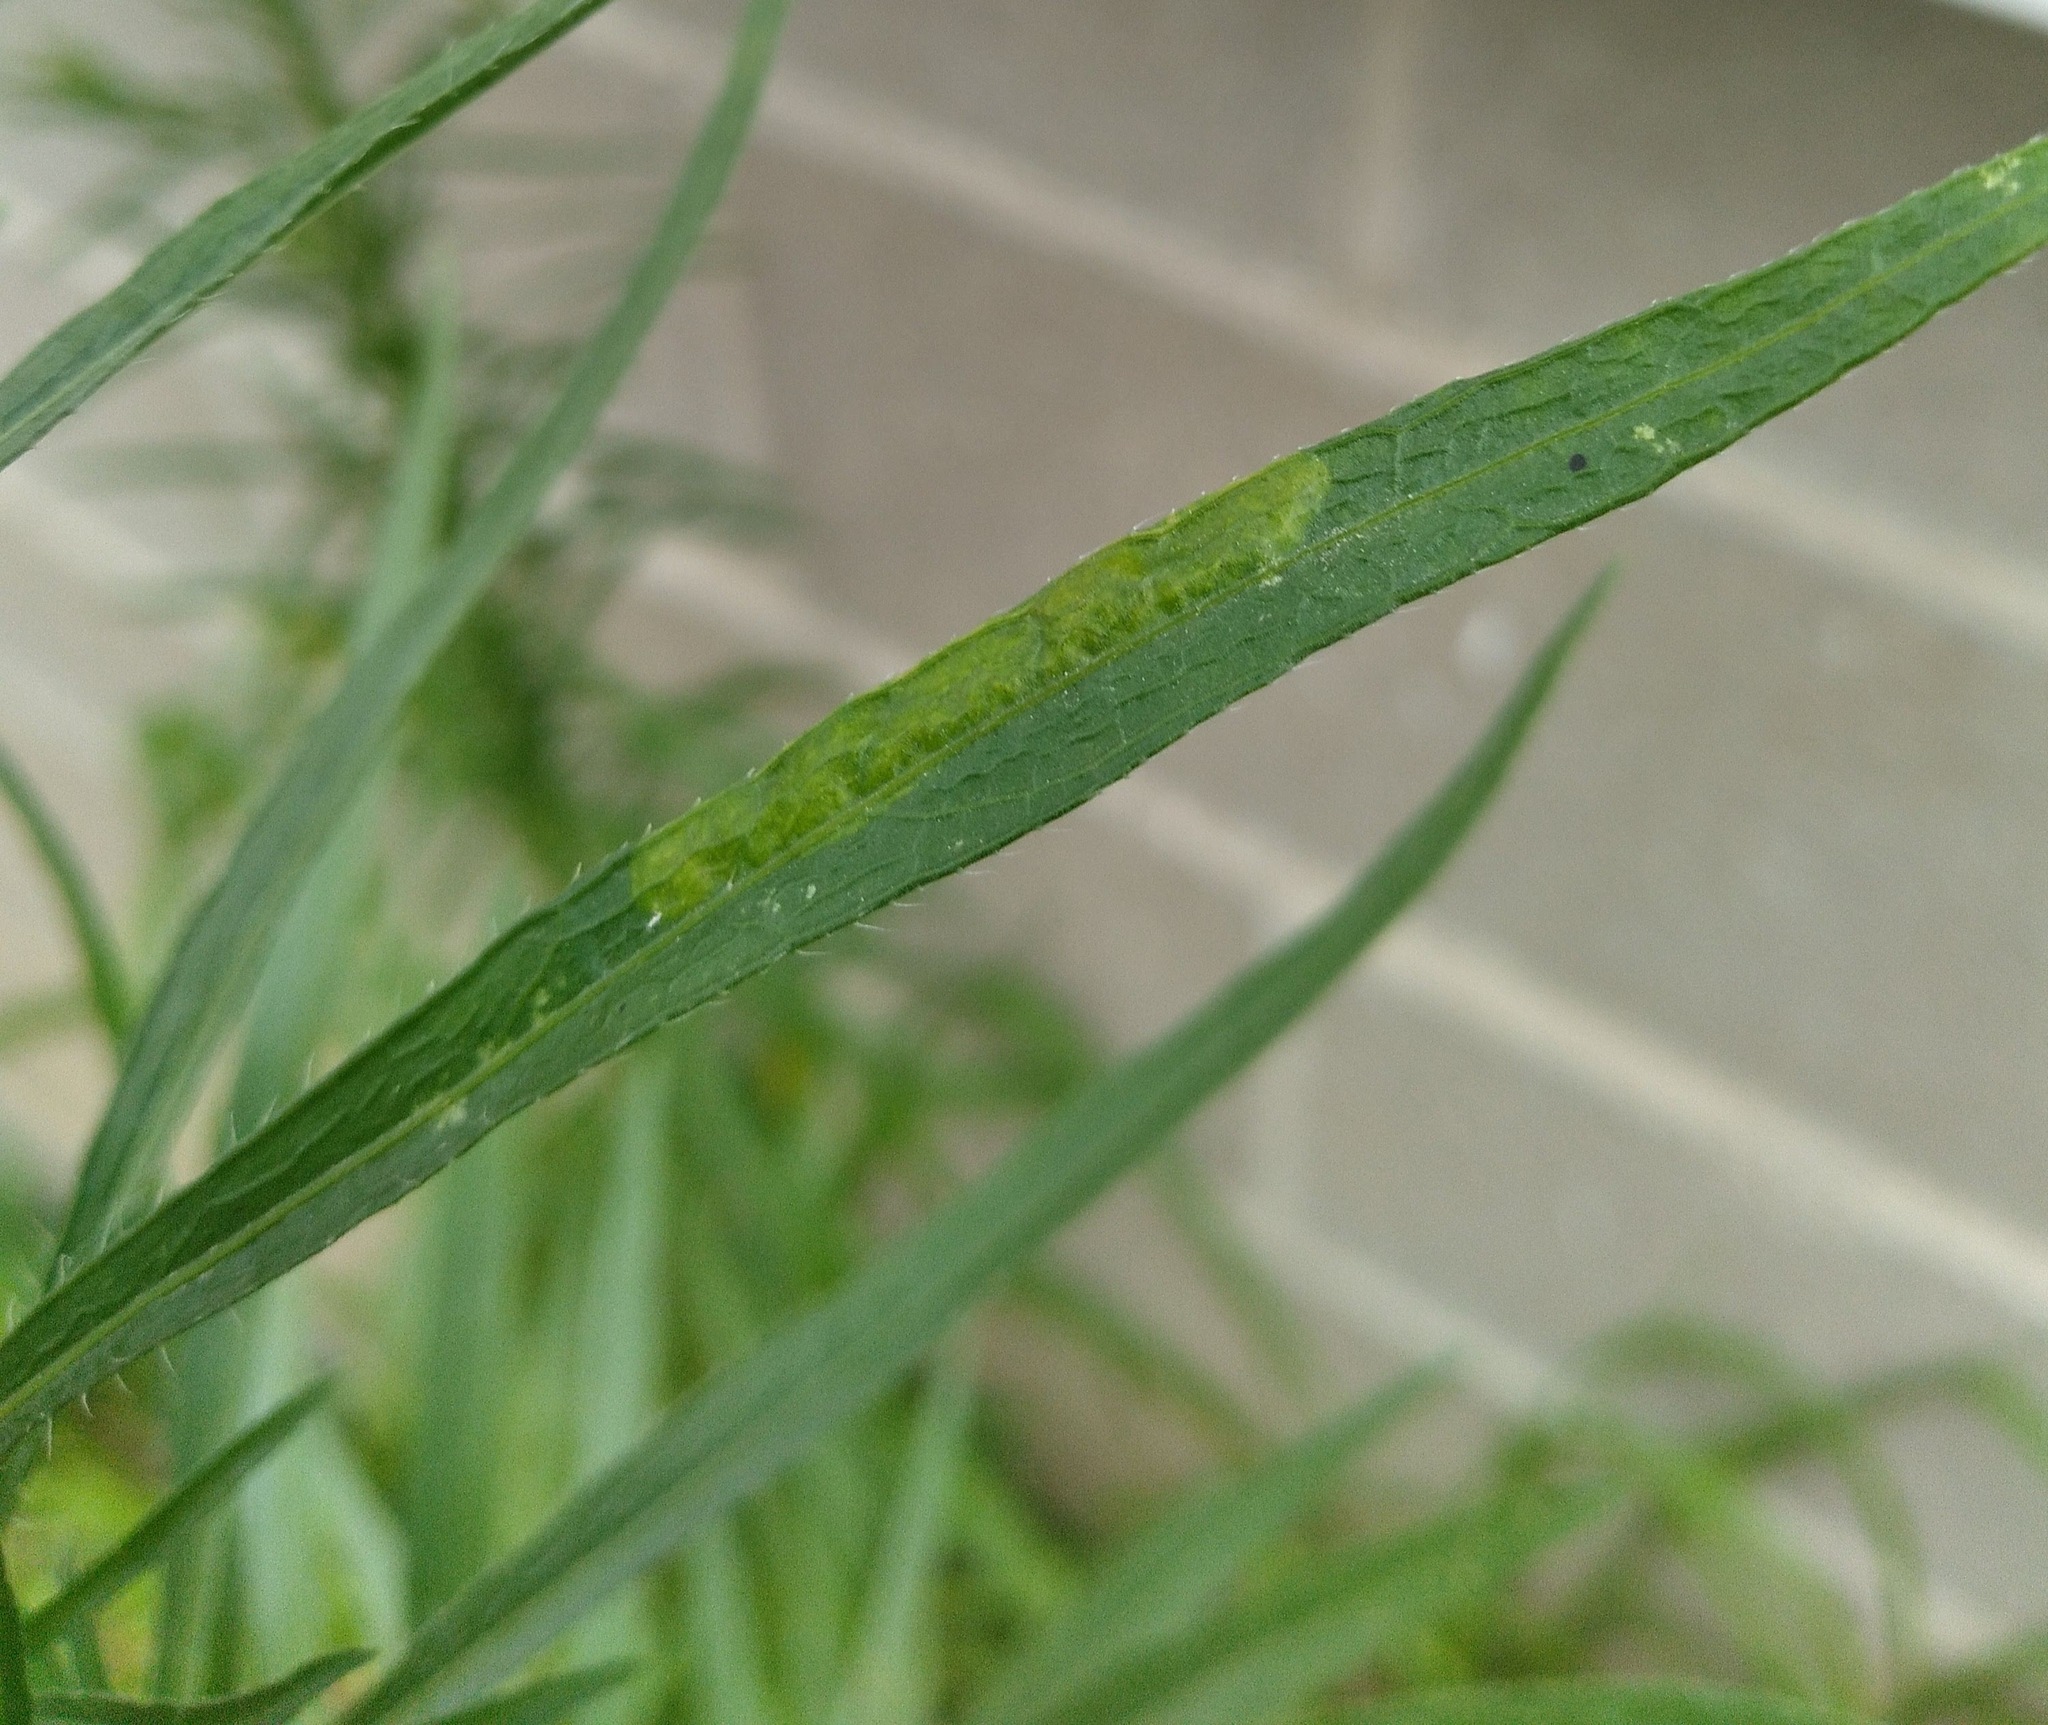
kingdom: Animalia
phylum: Arthropoda
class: Insecta
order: Lepidoptera
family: Gracillariidae
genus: Parectopa
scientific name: Parectopa plantaginisella
